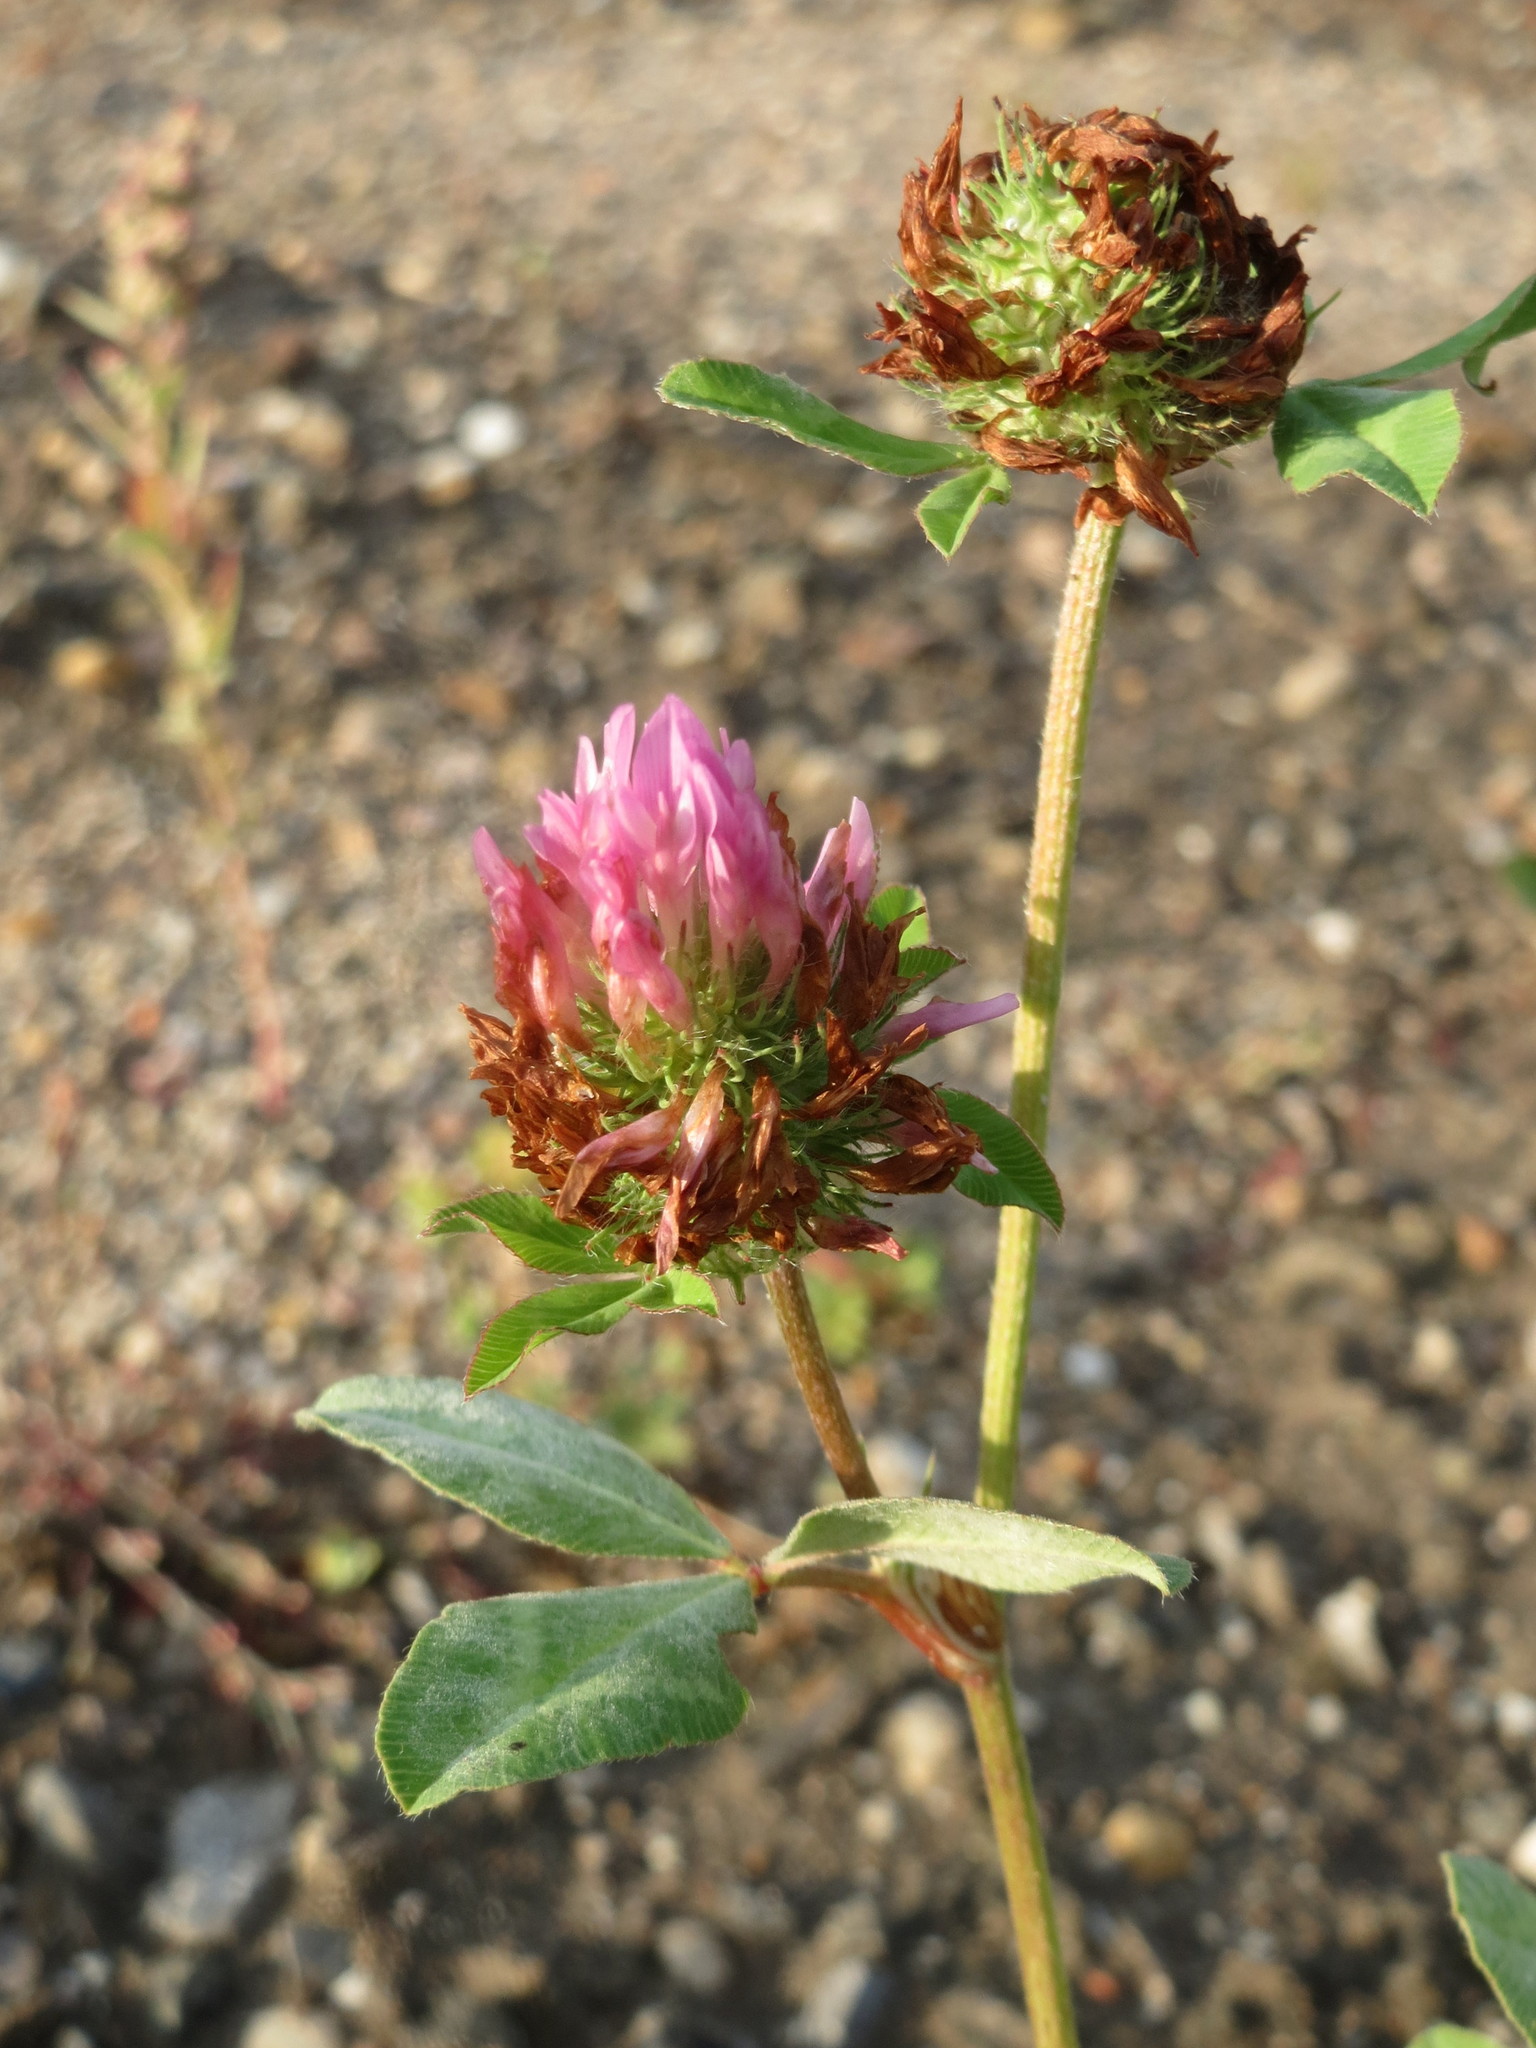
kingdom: Plantae
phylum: Tracheophyta
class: Magnoliopsida
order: Fabales
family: Fabaceae
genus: Trifolium
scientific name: Trifolium pratense
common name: Red clover
